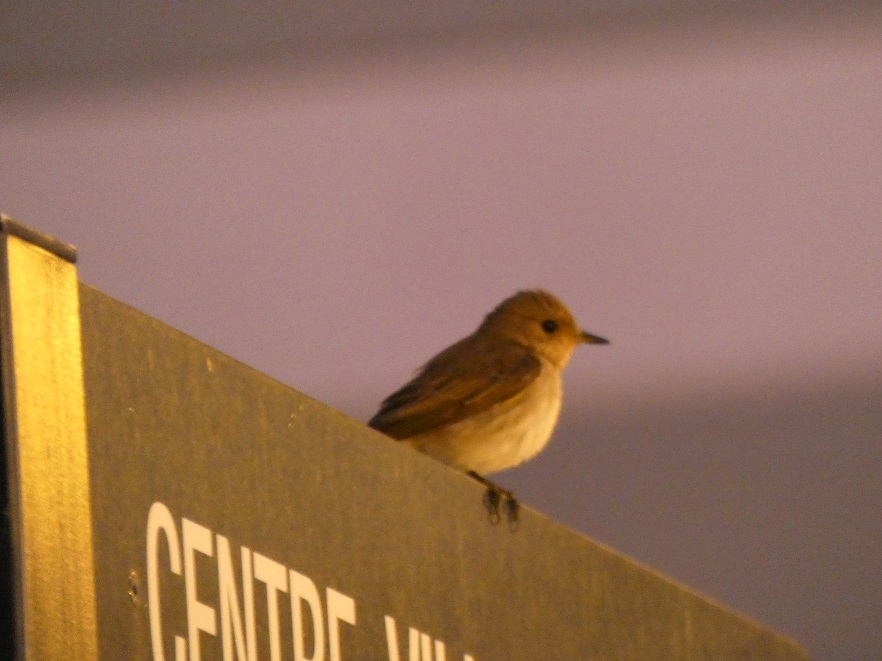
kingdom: Animalia
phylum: Chordata
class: Aves
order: Passeriformes
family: Muscicapidae
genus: Muscicapa
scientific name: Muscicapa striata
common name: Spotted flycatcher
